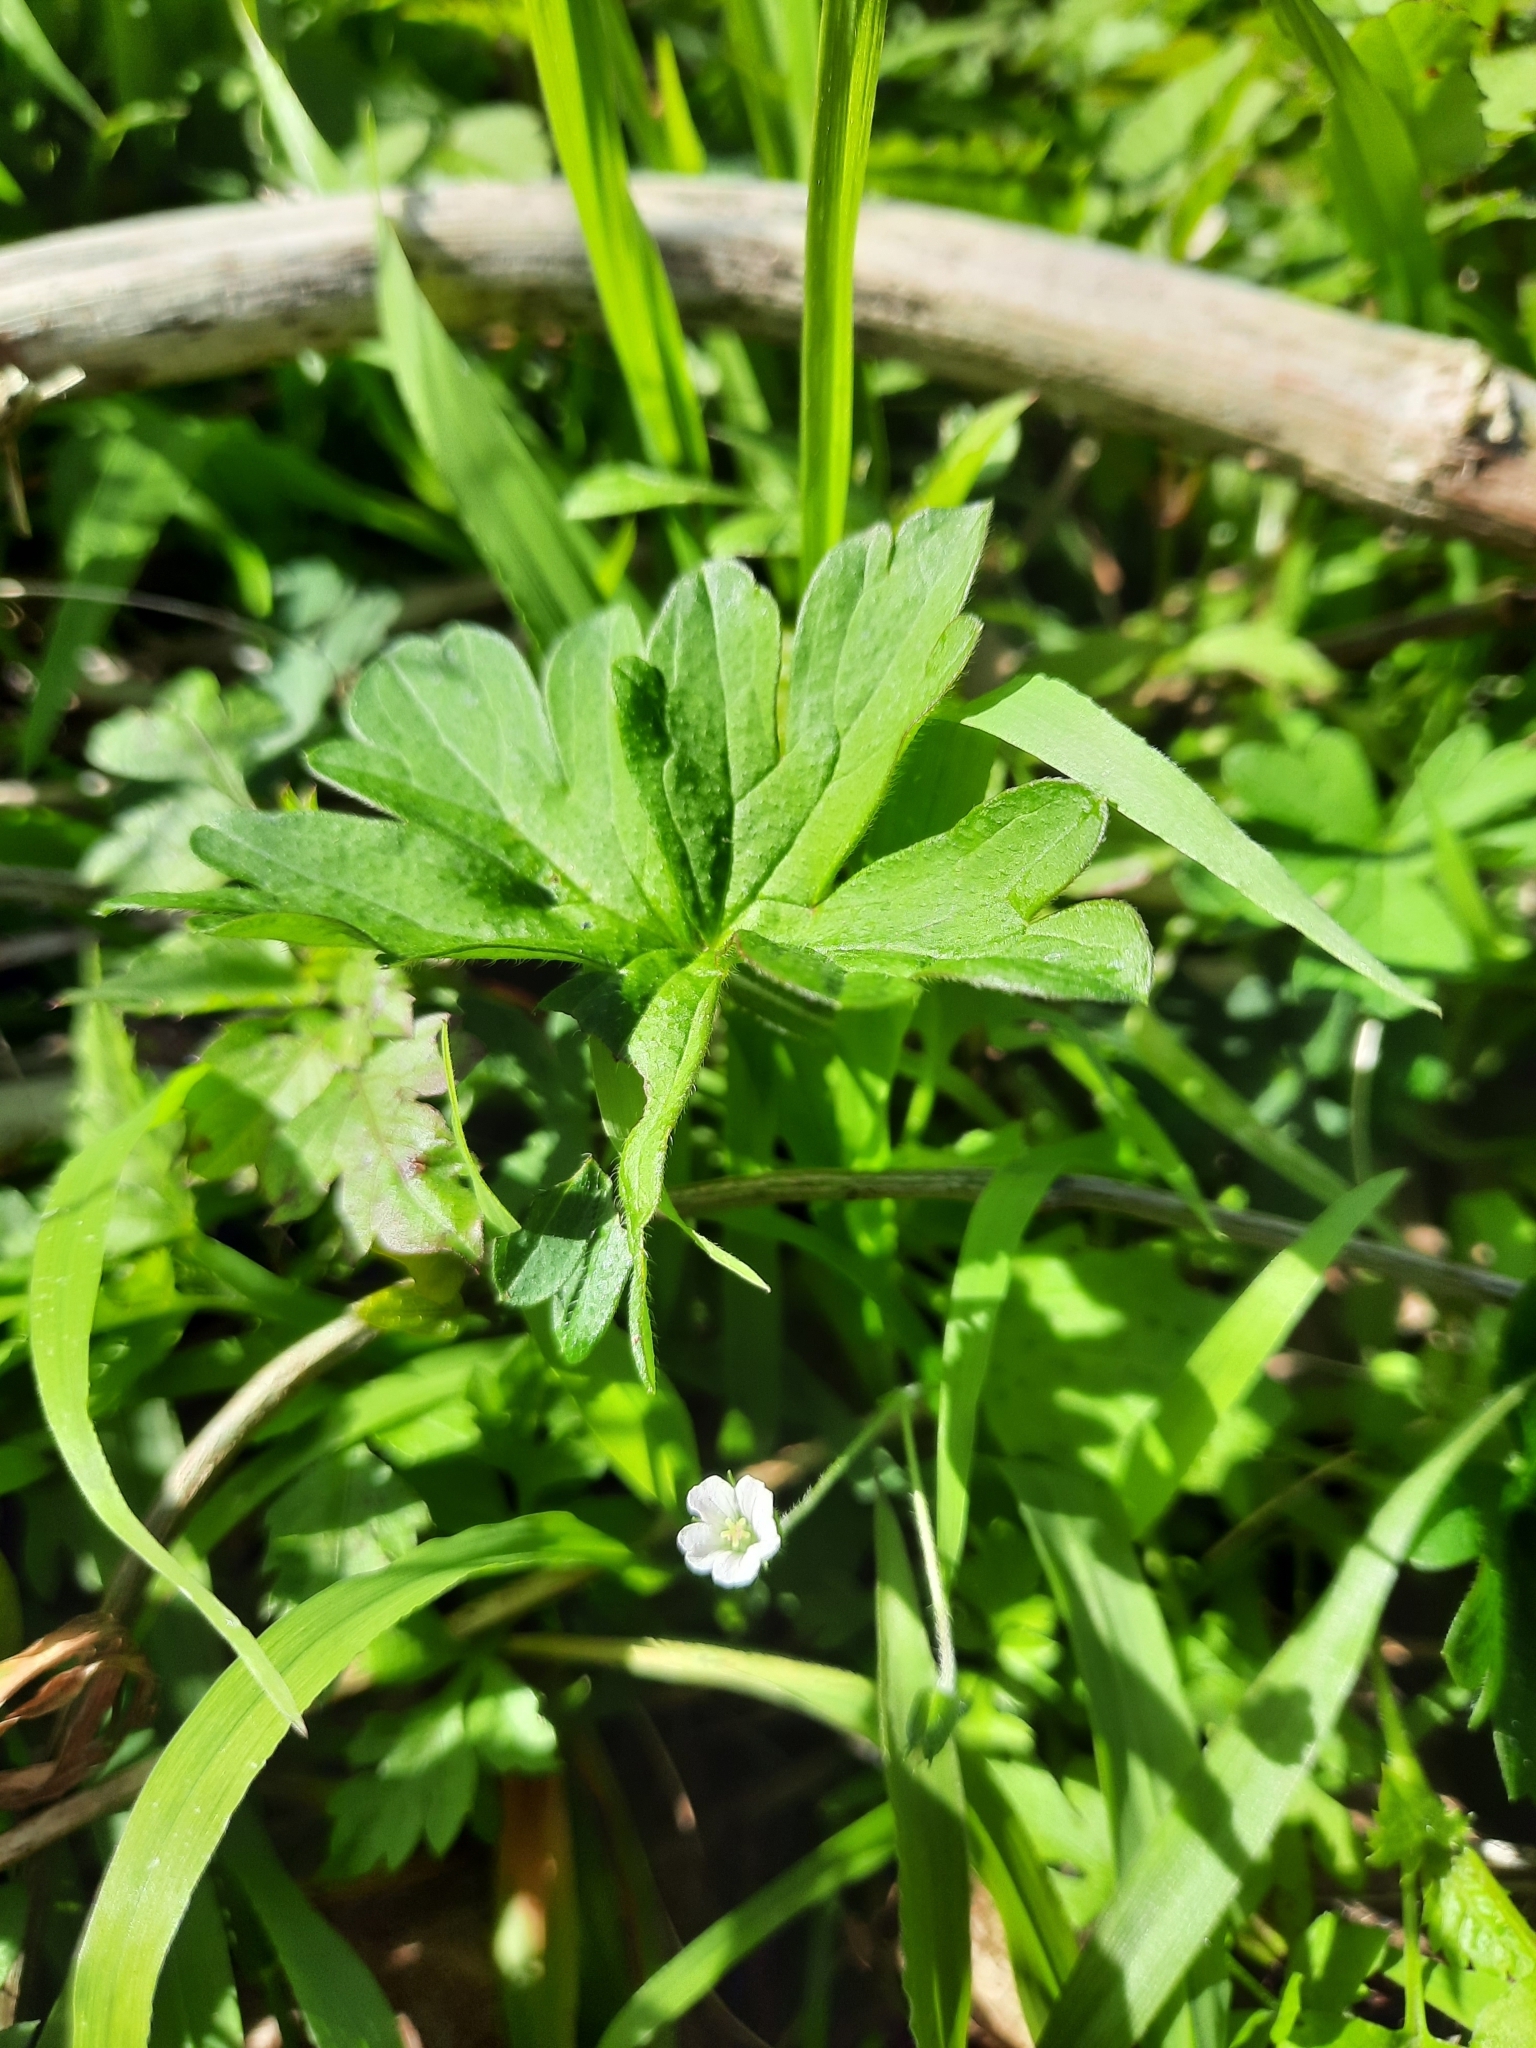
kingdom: Plantae
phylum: Tracheophyta
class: Magnoliopsida
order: Geraniales
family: Geraniaceae
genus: Geranium
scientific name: Geranium homeanum
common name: Australasian geranium
